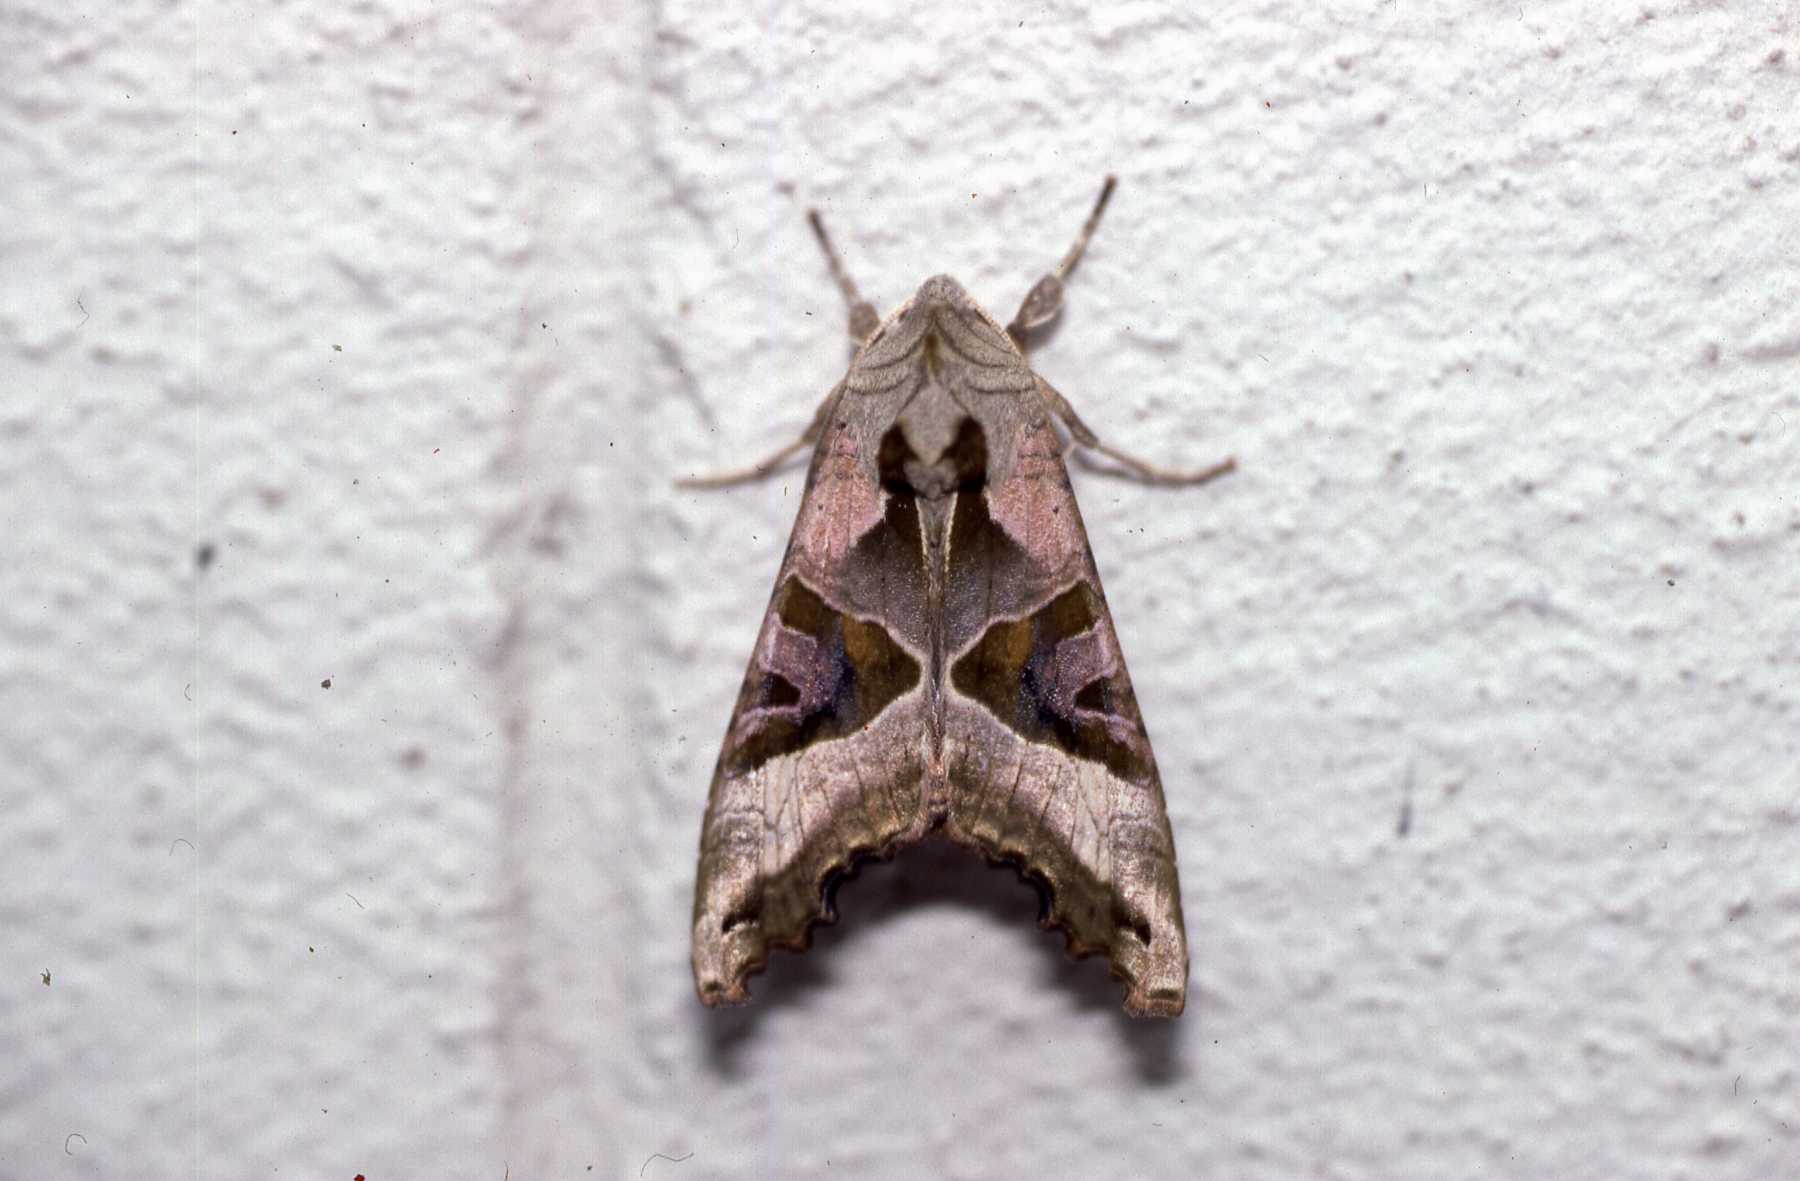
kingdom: Animalia
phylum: Arthropoda
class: Insecta
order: Lepidoptera
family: Noctuidae
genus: Phlogophora
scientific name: Phlogophora meticulosa
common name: Angle shades
